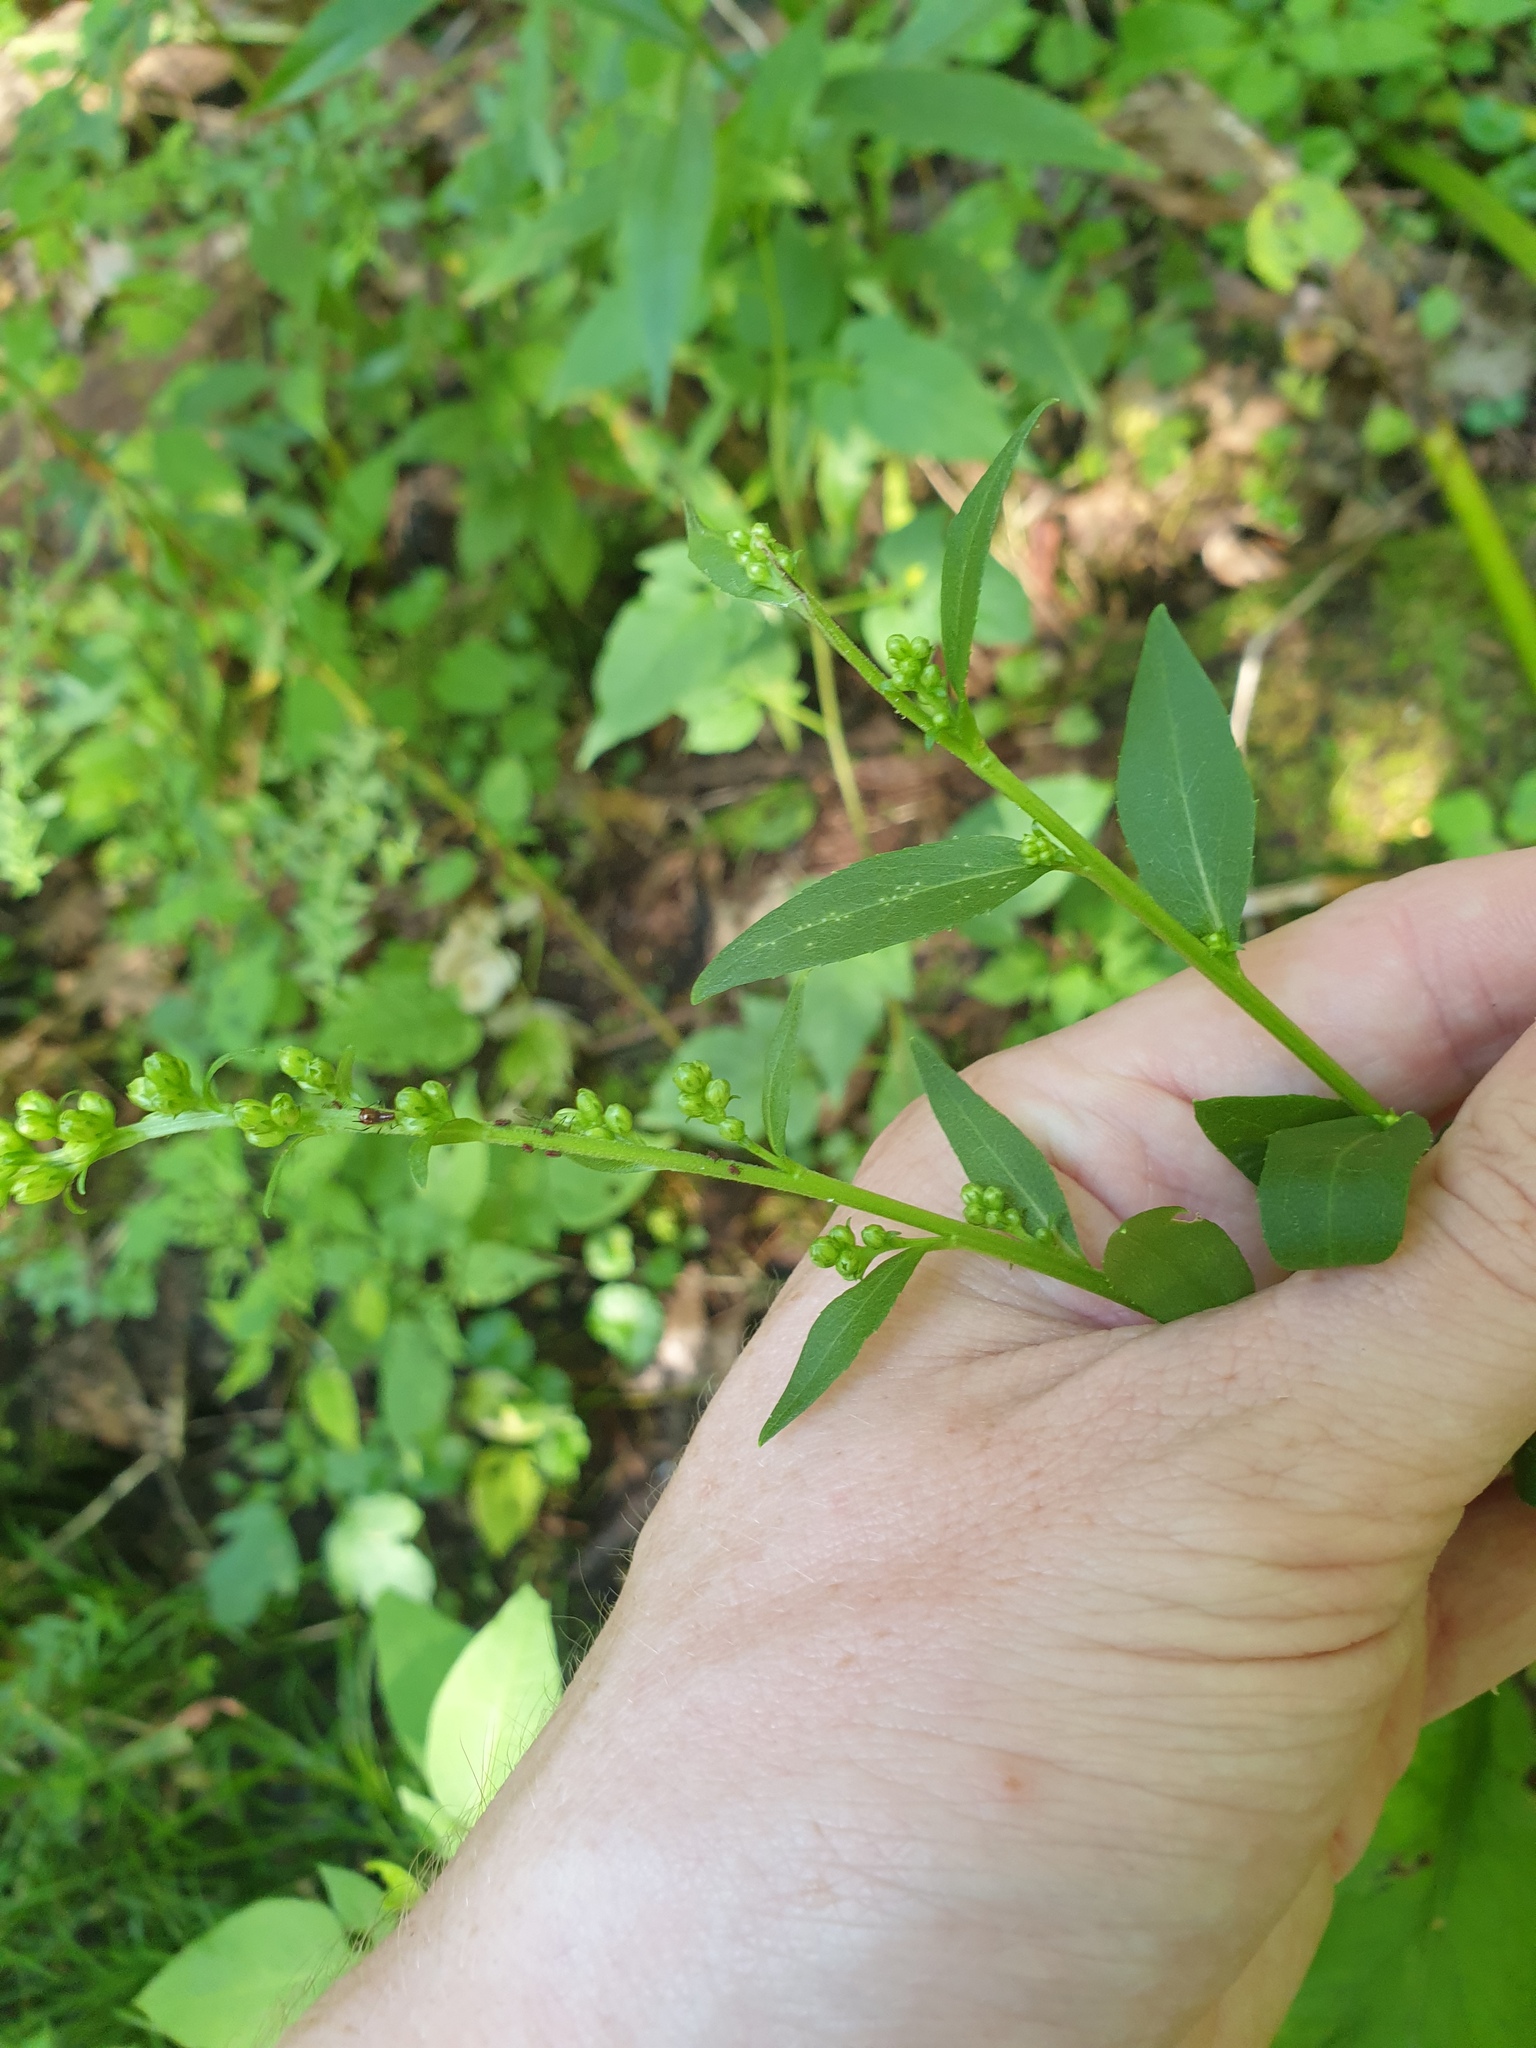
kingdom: Plantae
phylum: Tracheophyta
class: Magnoliopsida
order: Asterales
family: Asteraceae
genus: Solidago
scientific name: Solidago patula
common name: Rough-leaf goldenrod
